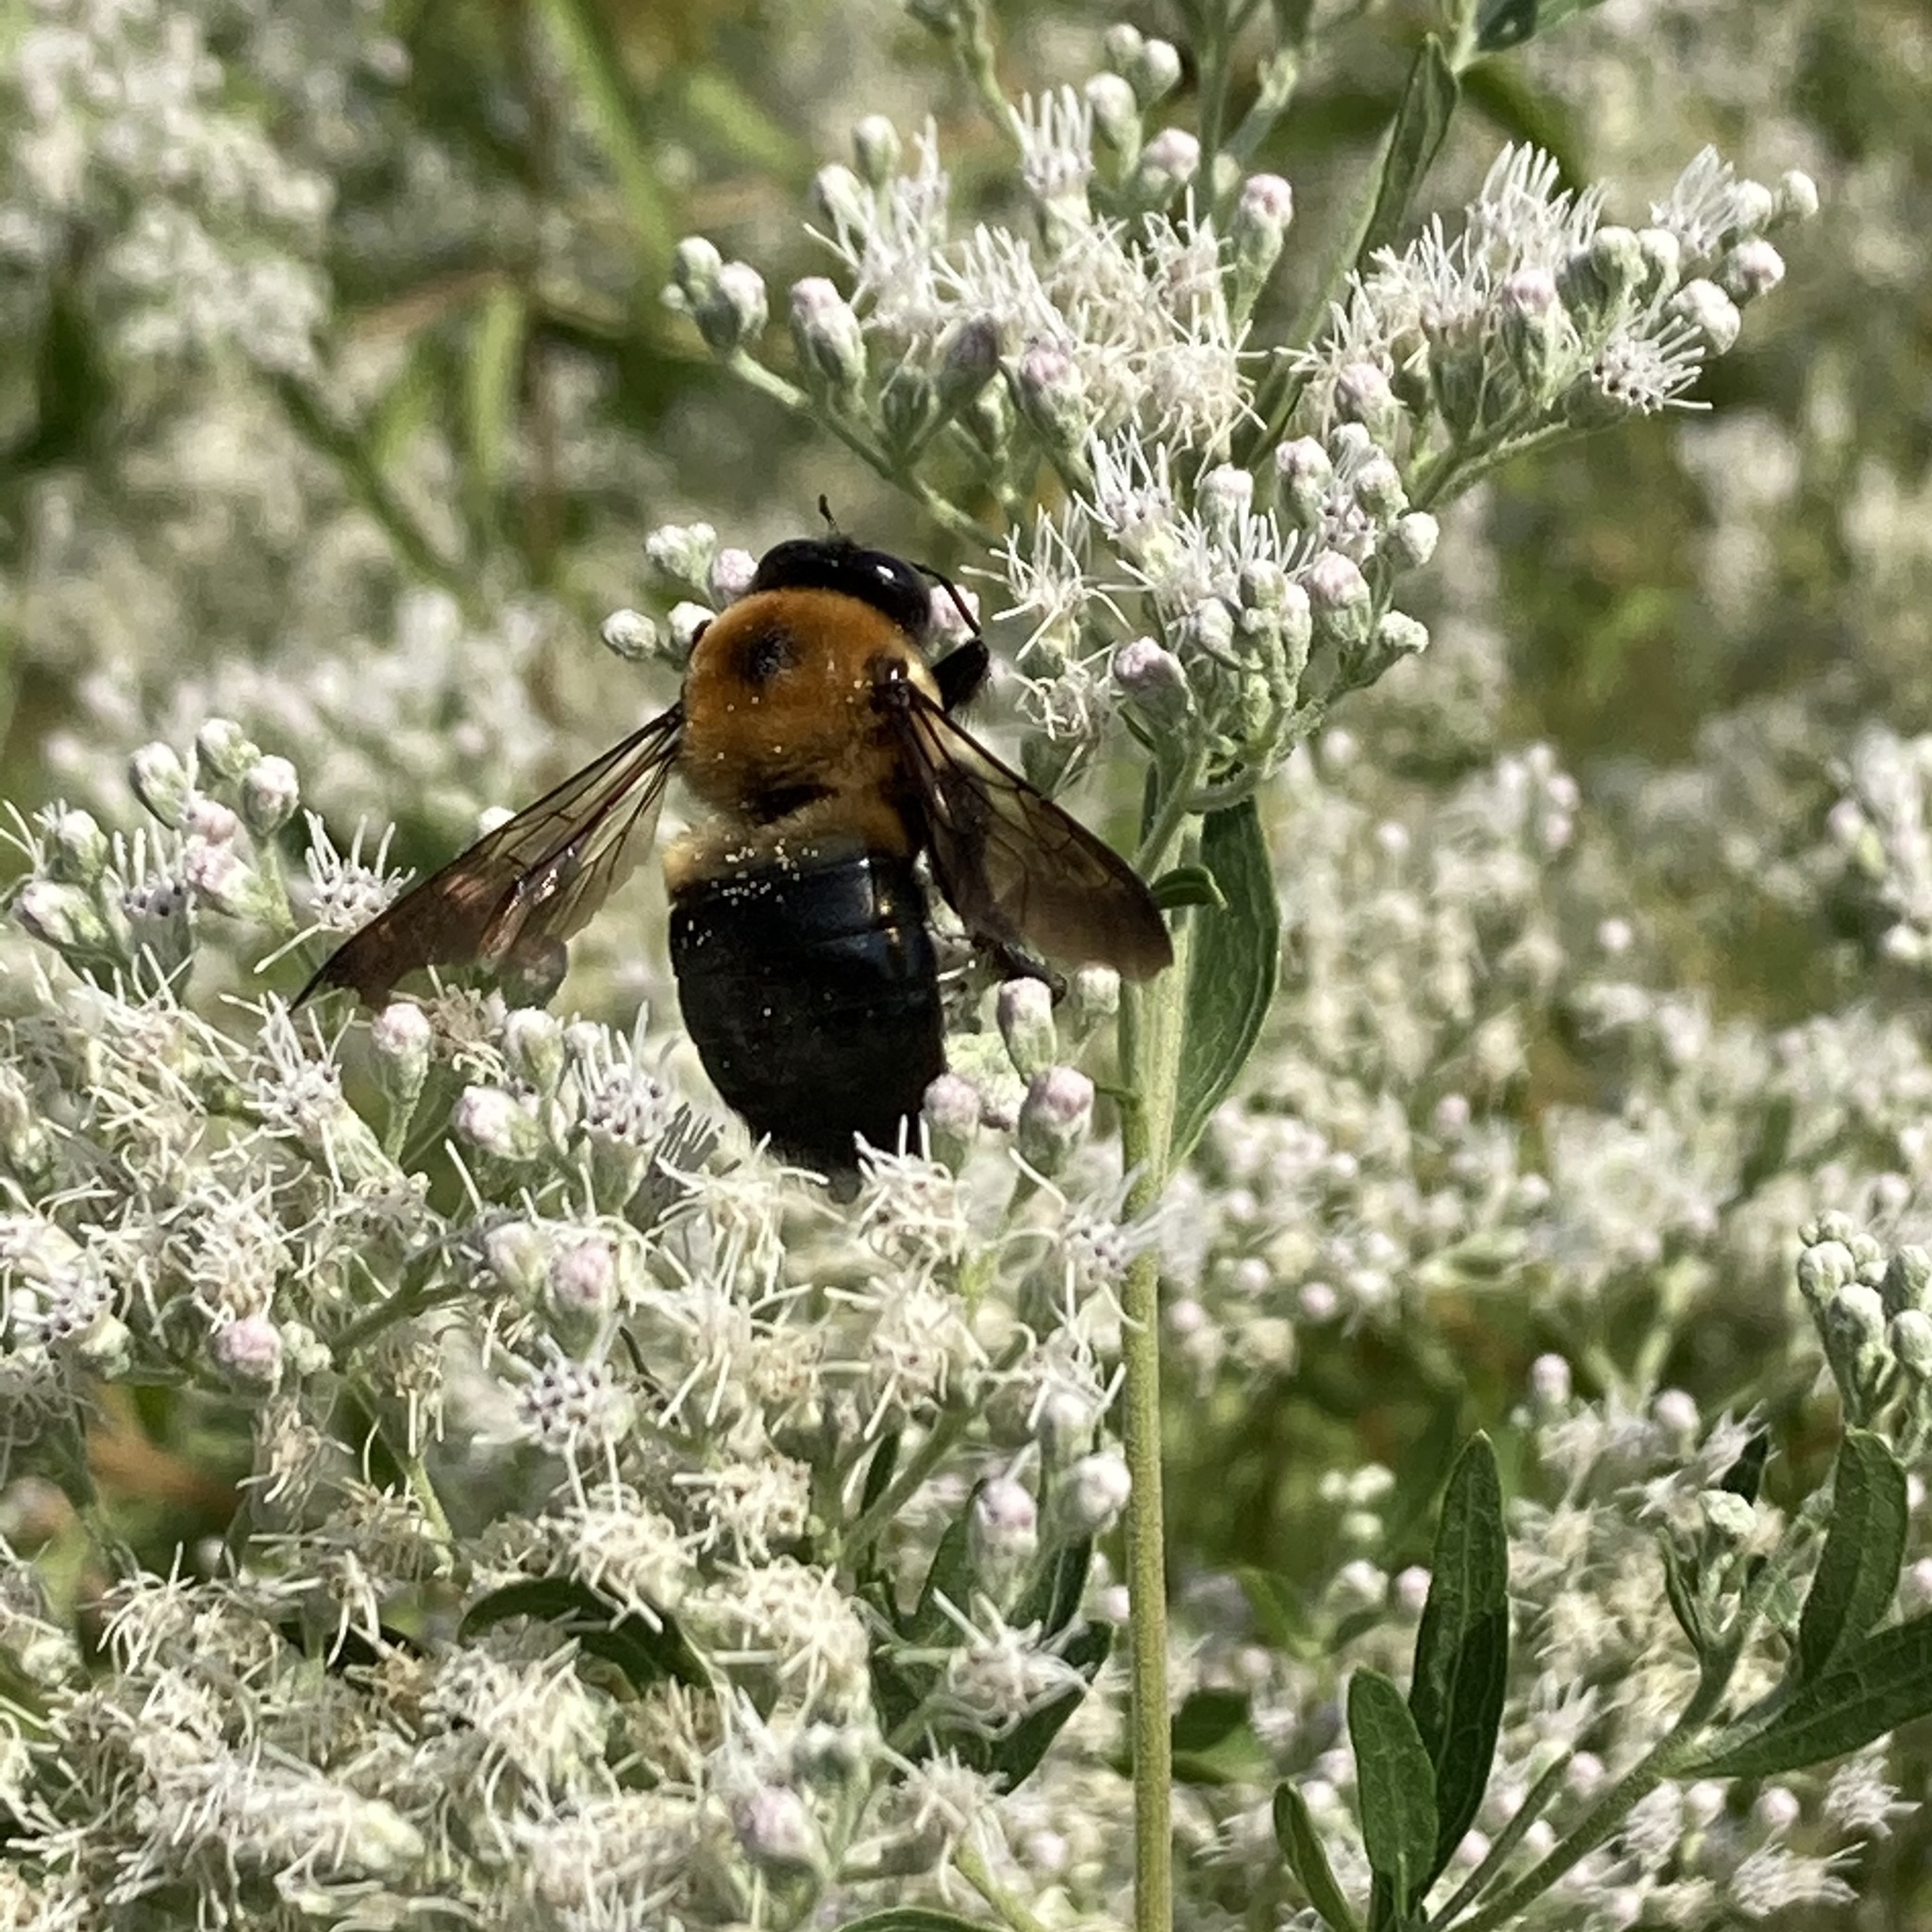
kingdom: Animalia
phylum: Arthropoda
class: Insecta
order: Hymenoptera
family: Apidae
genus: Xylocopa
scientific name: Xylocopa virginica
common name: Carpenter bee
